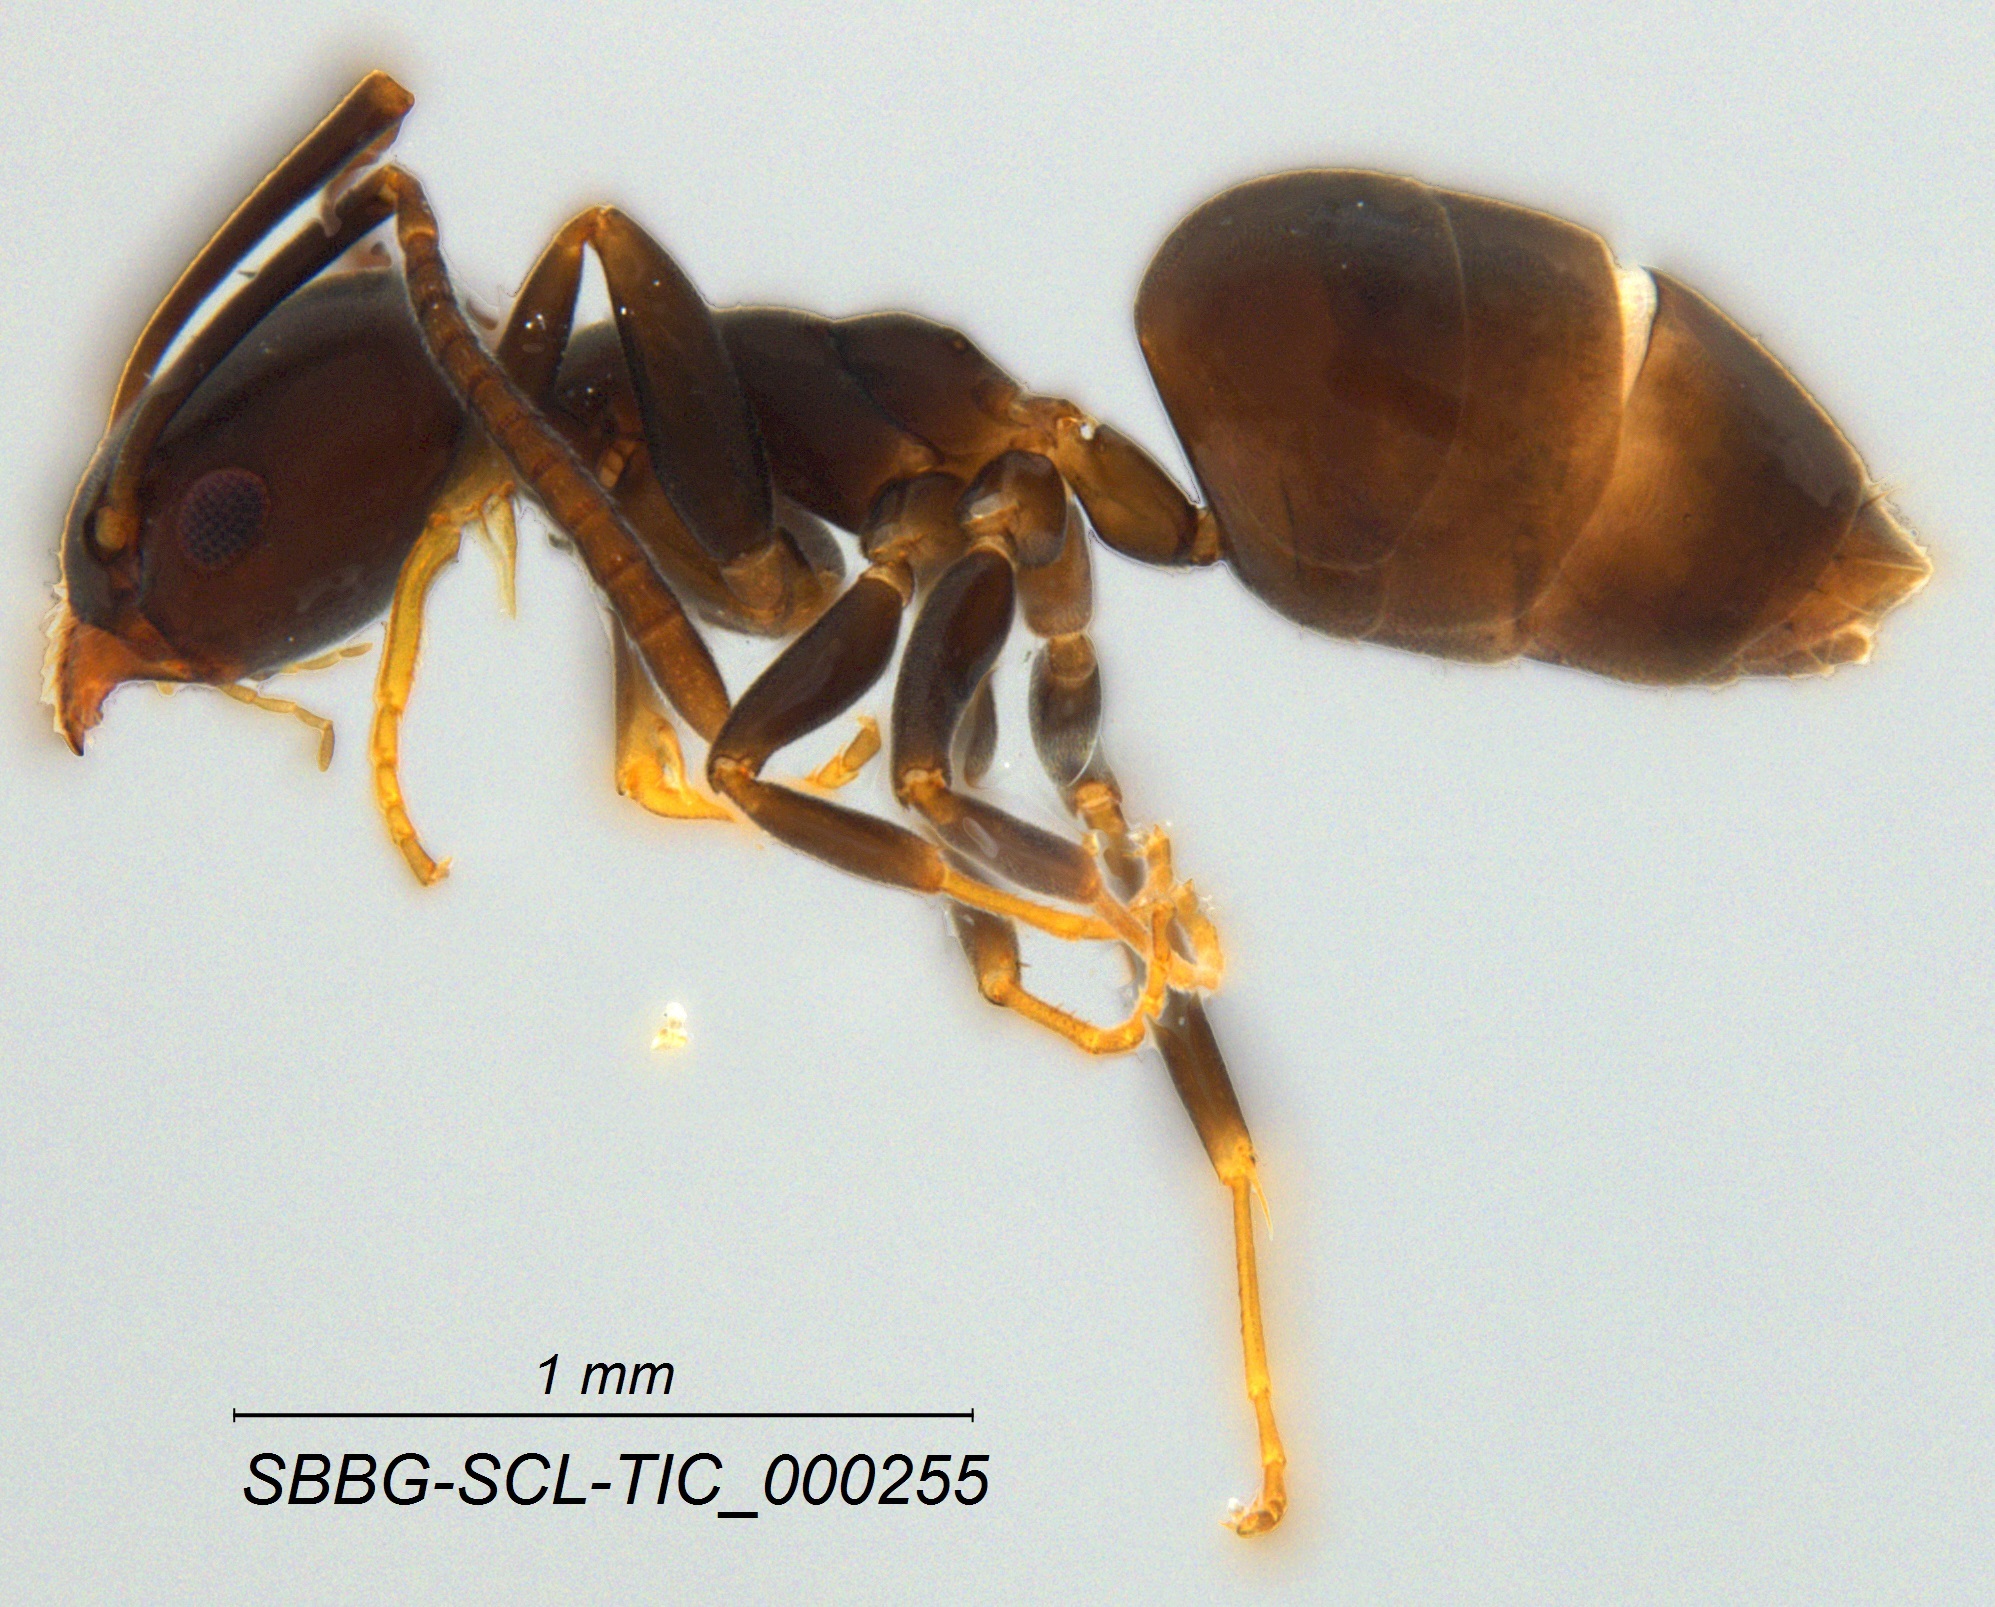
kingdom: Animalia
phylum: Arthropoda
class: Insecta
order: Hymenoptera
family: Formicidae
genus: Tapinoma
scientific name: Tapinoma sessile
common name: Odorous house ant
